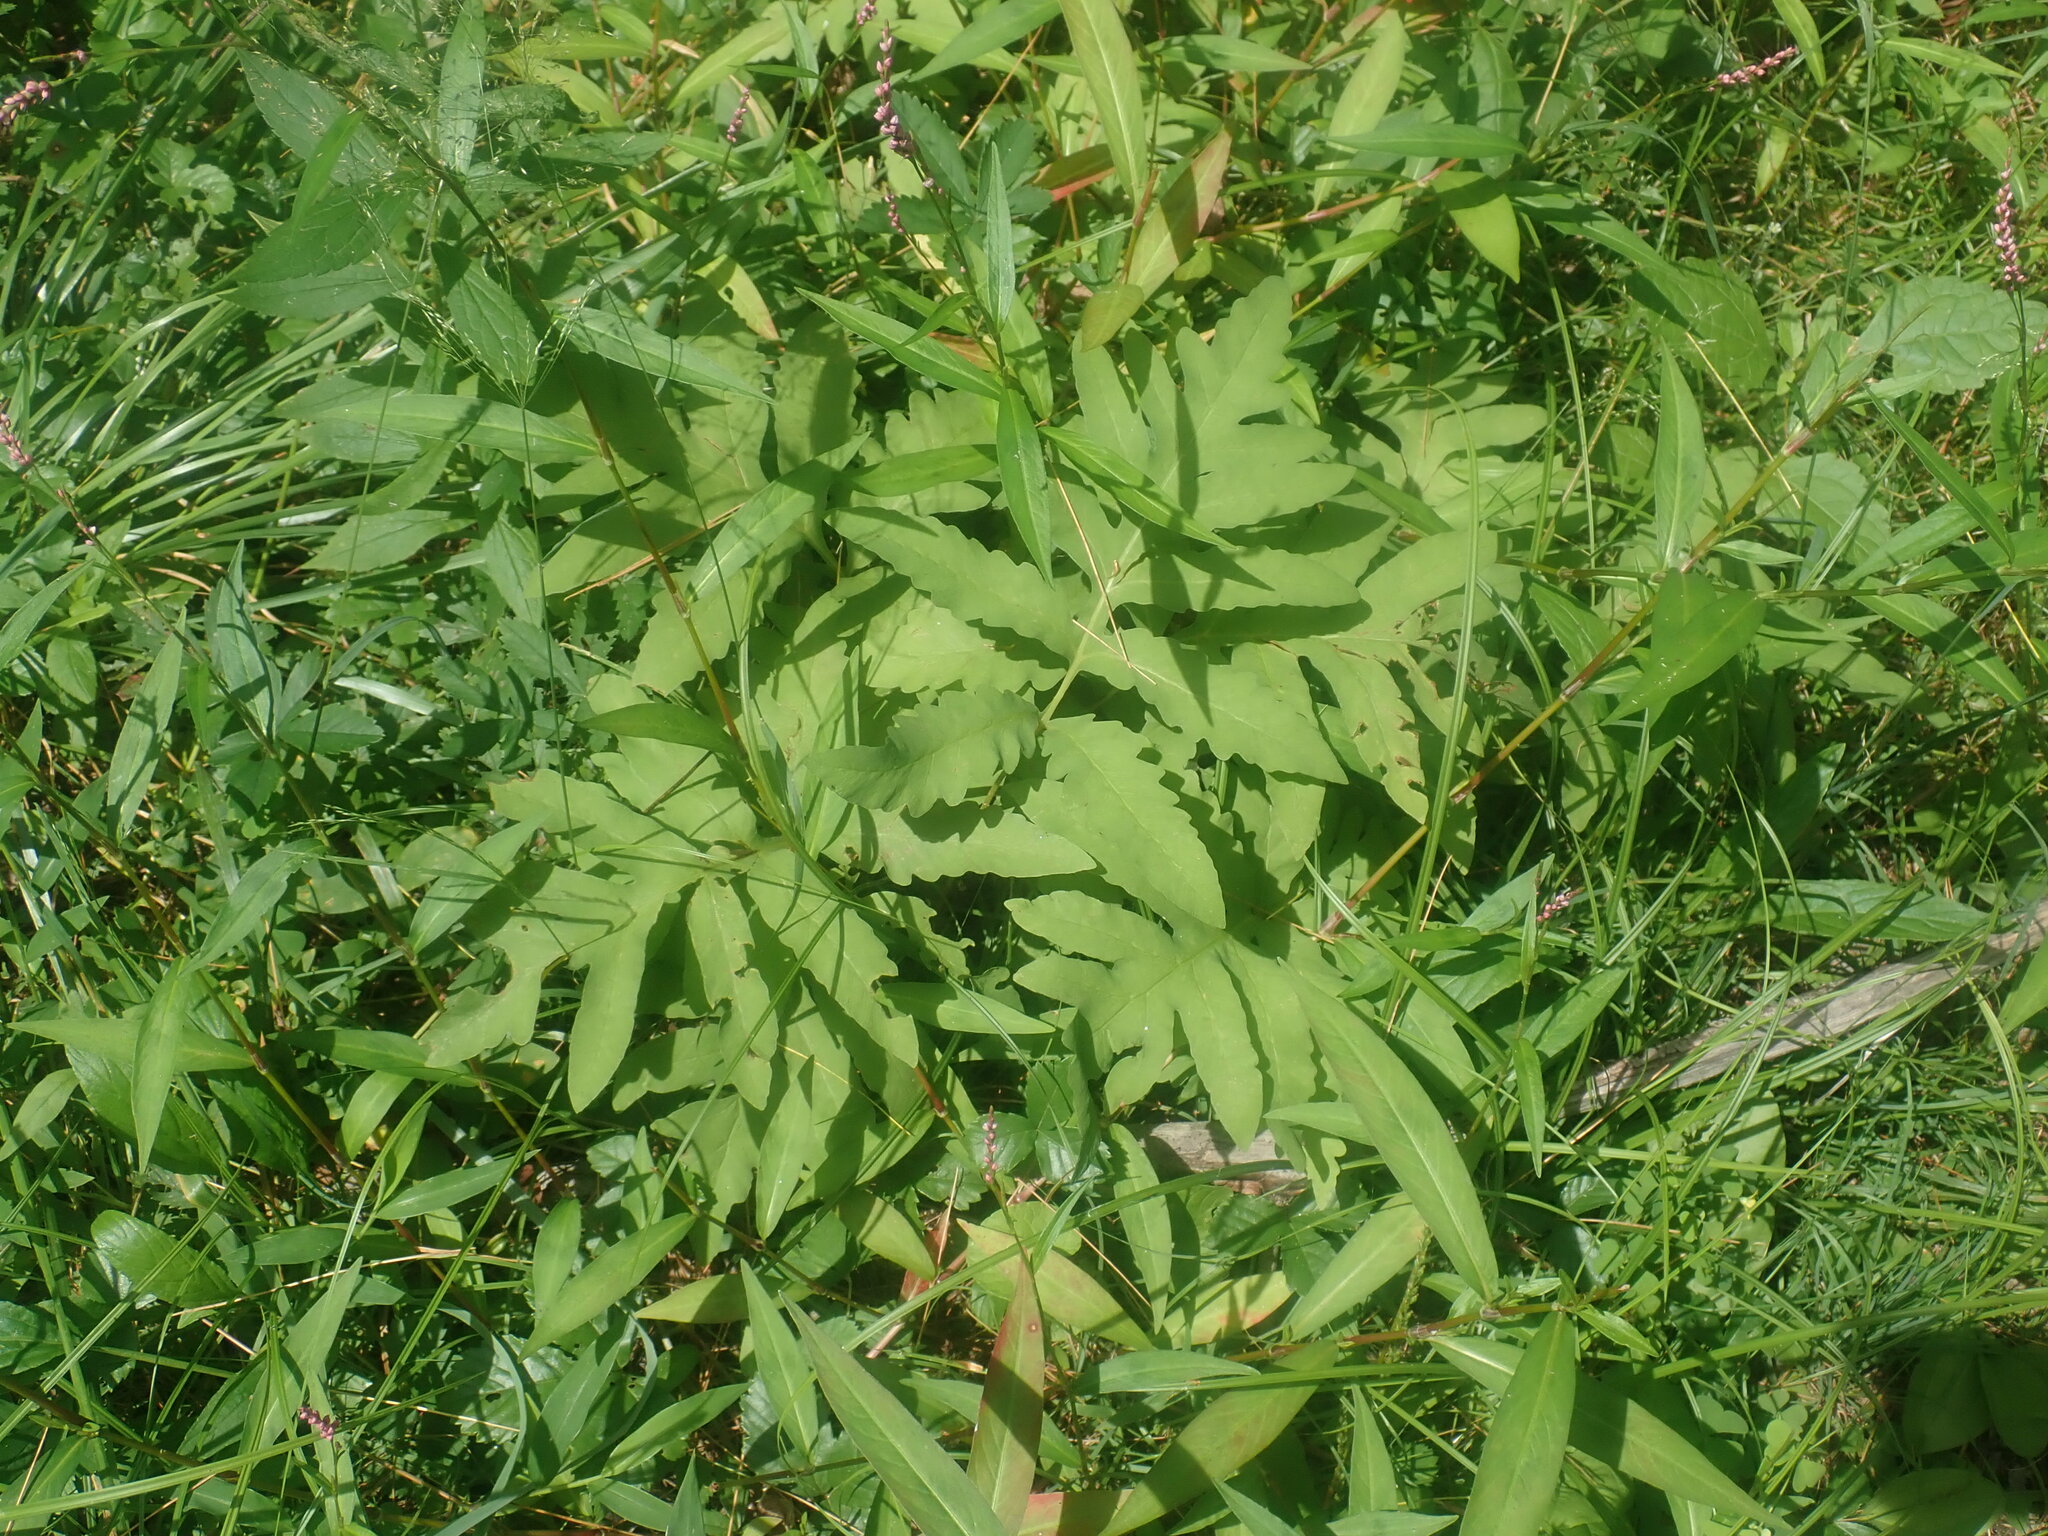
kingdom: Plantae
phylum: Tracheophyta
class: Polypodiopsida
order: Polypodiales
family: Onocleaceae
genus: Onoclea
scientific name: Onoclea sensibilis
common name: Sensitive fern
